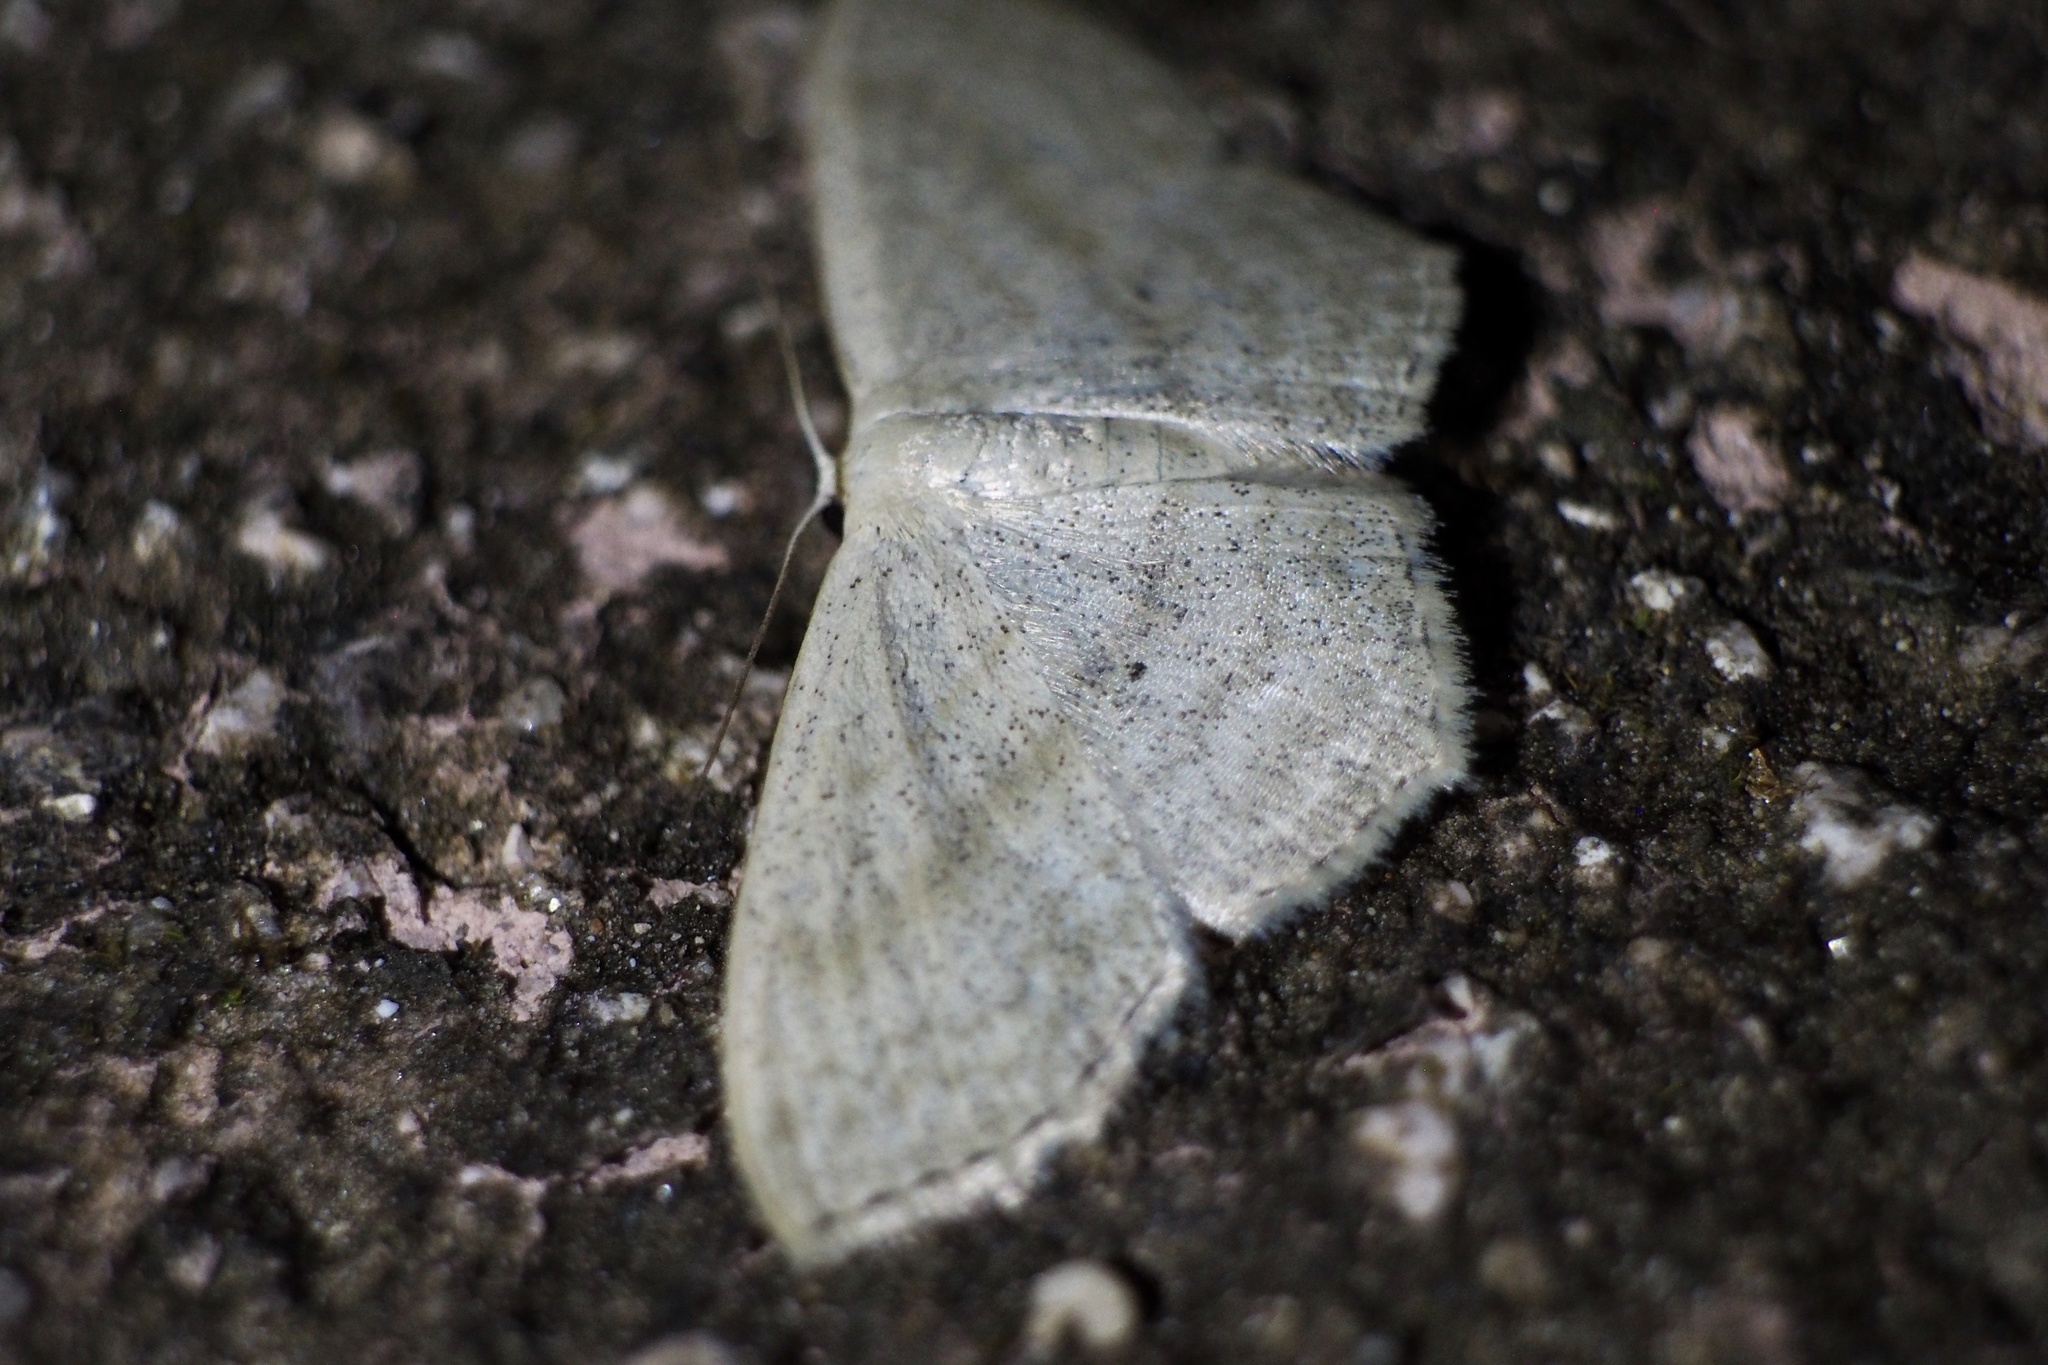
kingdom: Animalia
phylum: Arthropoda
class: Insecta
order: Lepidoptera
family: Geometridae
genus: Scopula
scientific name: Scopula nigropunctata
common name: Sub-angled wave
